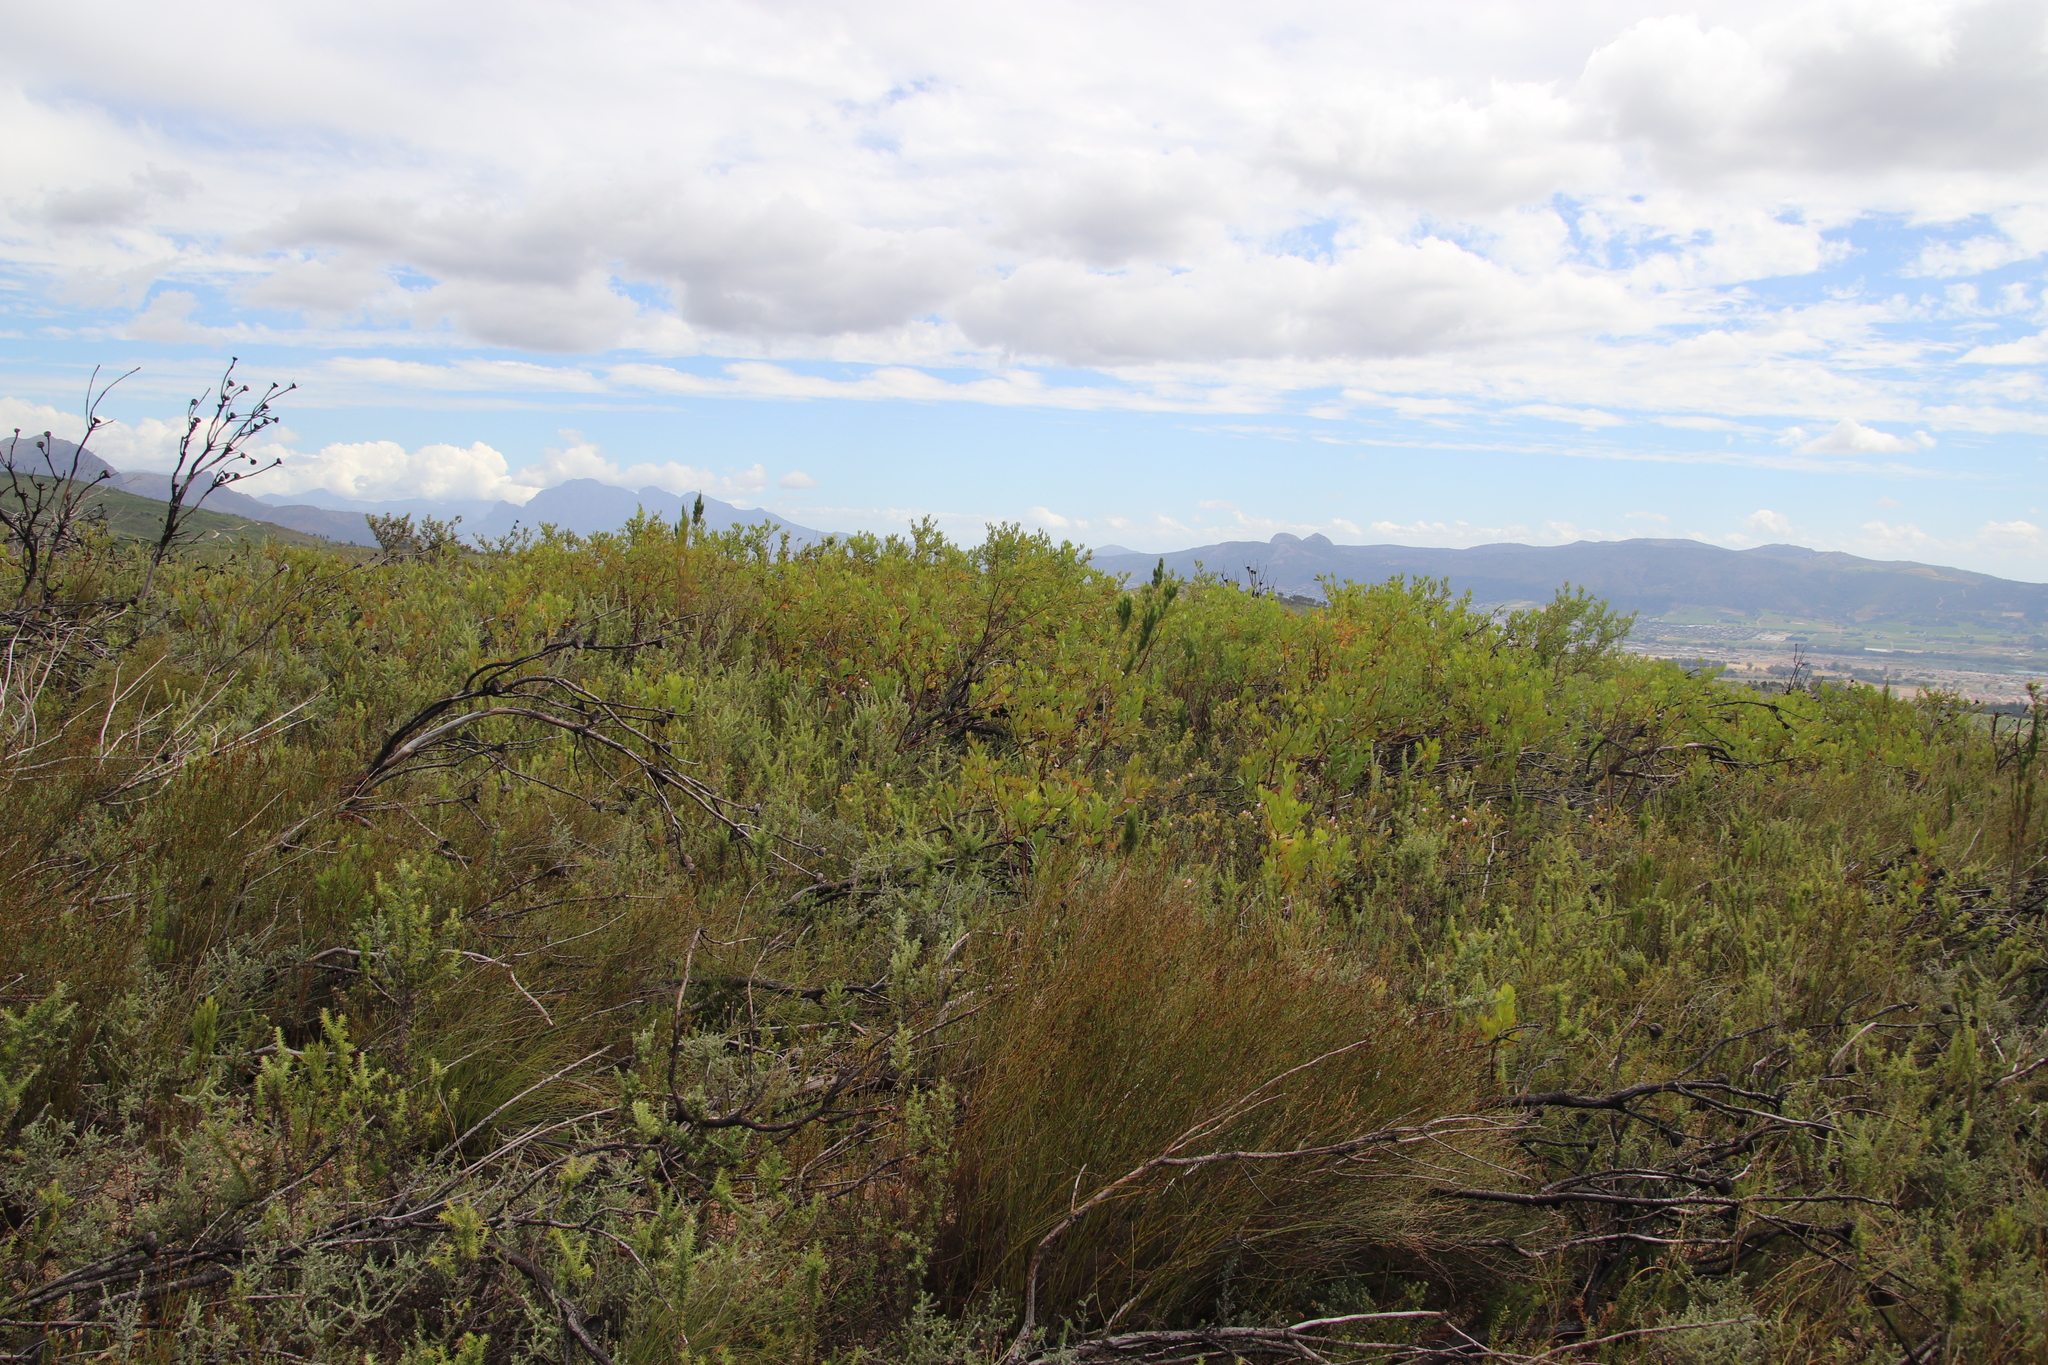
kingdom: Plantae
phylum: Tracheophyta
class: Magnoliopsida
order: Asterales
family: Asteraceae
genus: Osteospermum
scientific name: Osteospermum moniliferum
